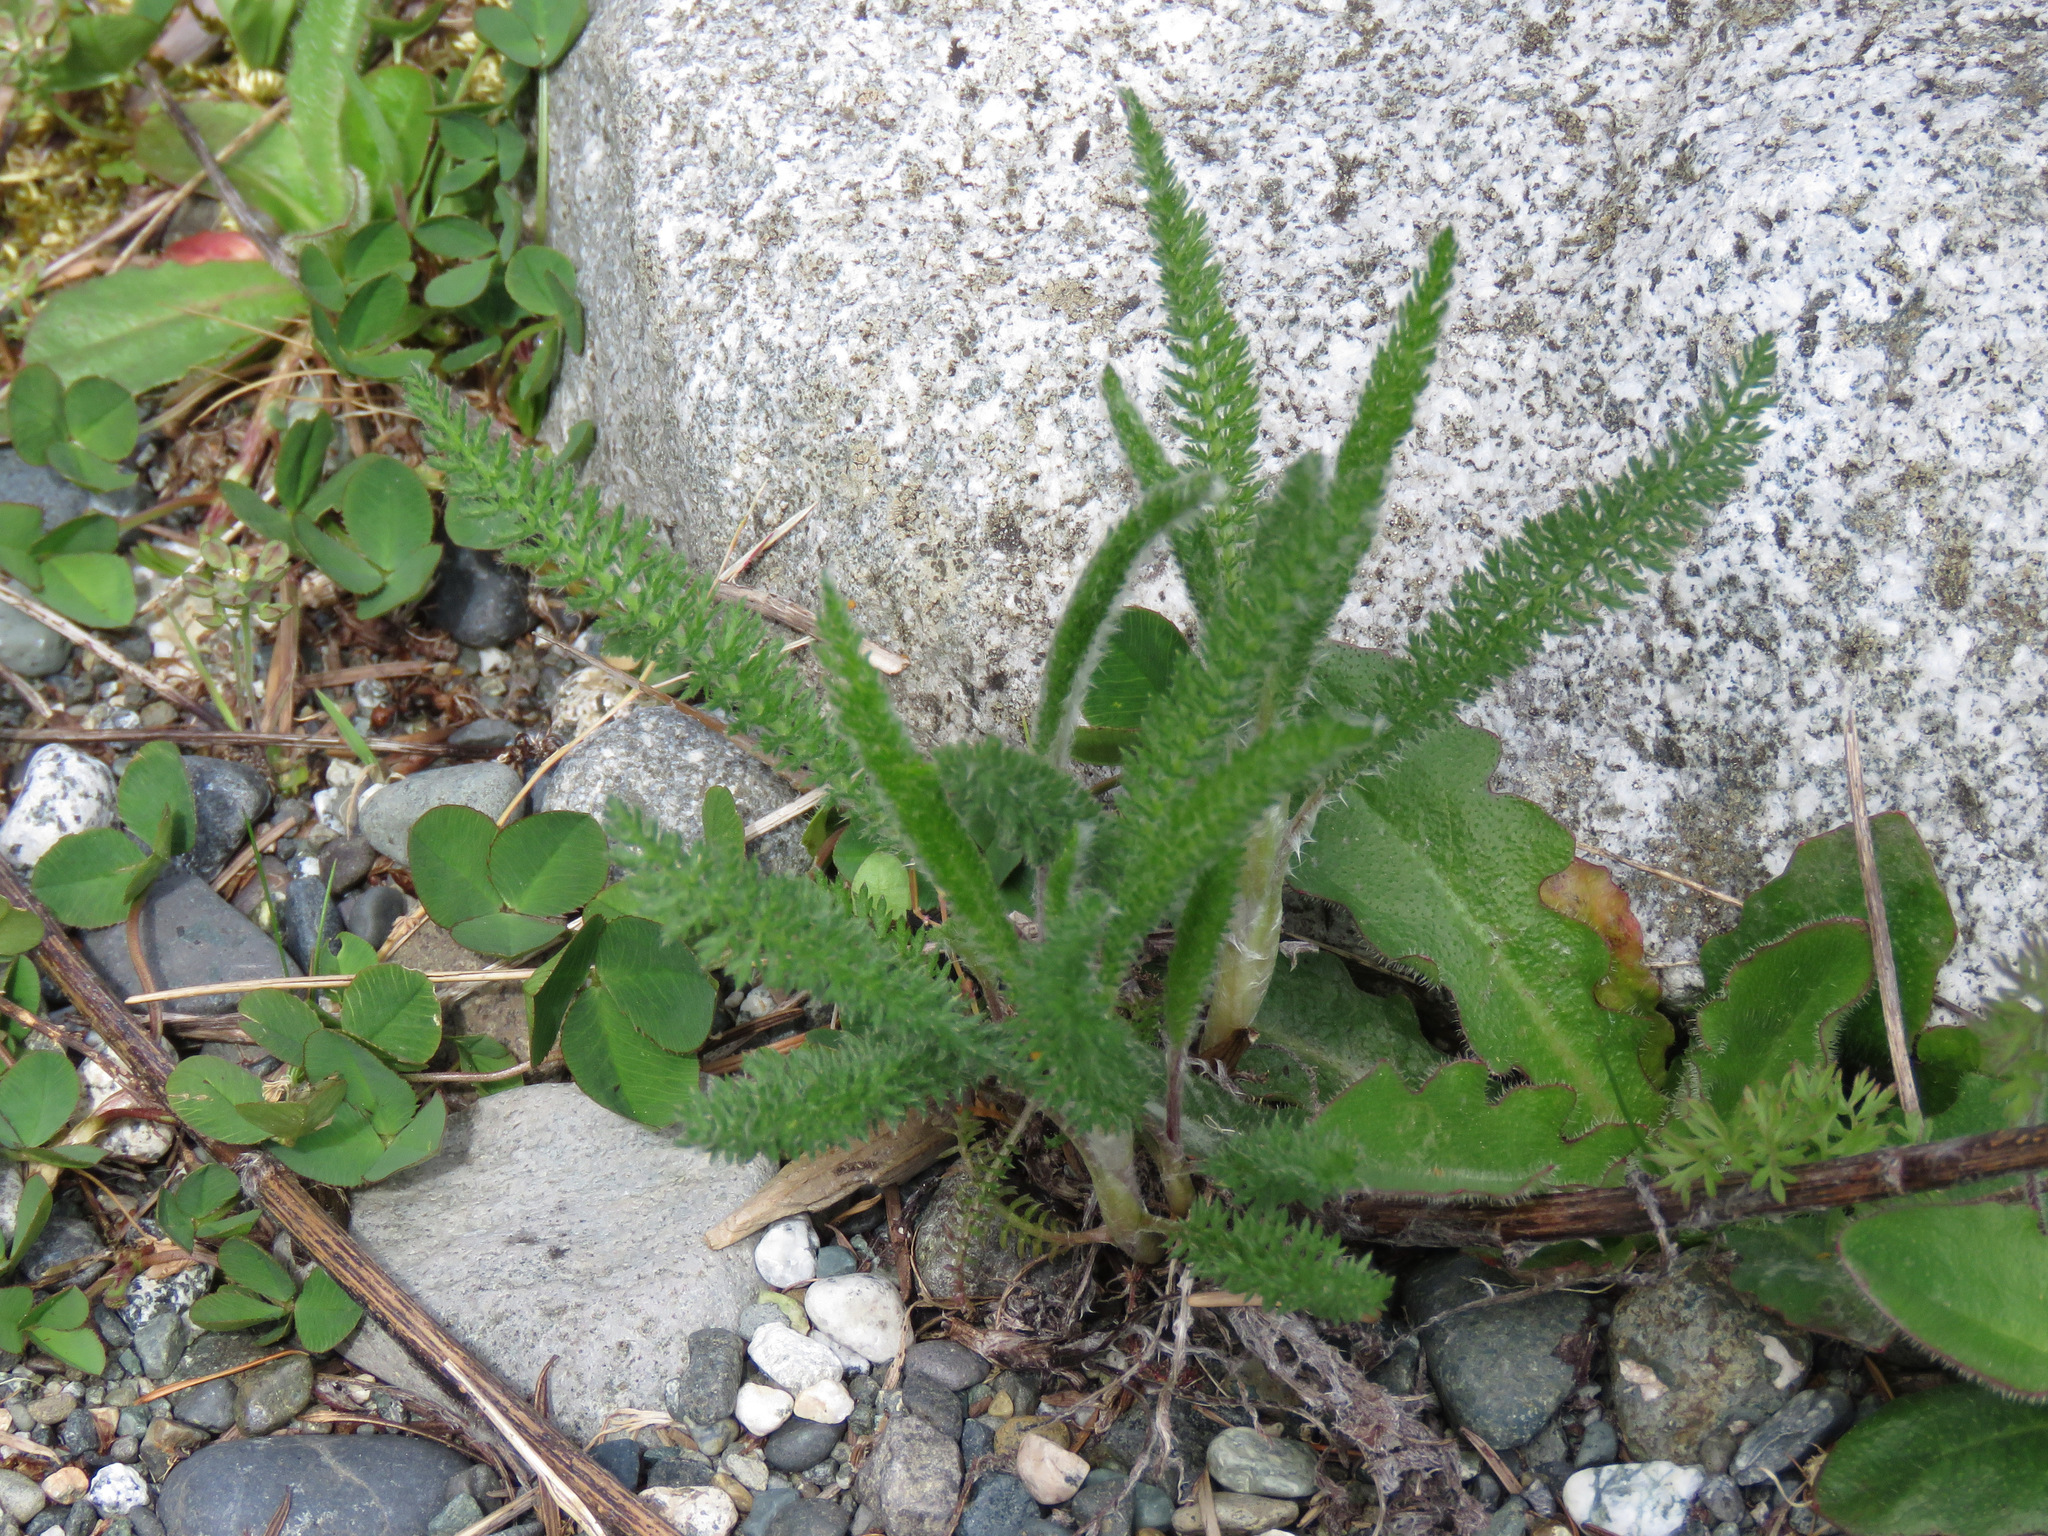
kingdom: Plantae
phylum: Tracheophyta
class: Magnoliopsida
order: Asterales
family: Asteraceae
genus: Achillea
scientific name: Achillea millefolium
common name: Yarrow
